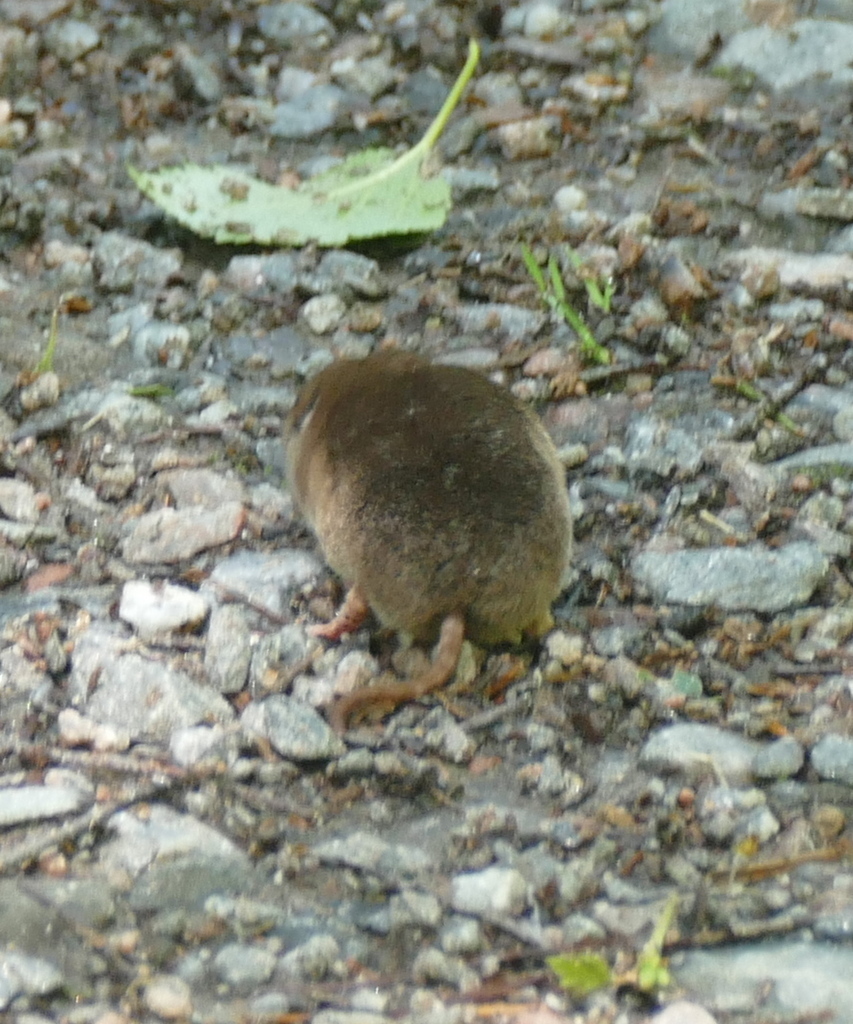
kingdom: Animalia
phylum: Chordata
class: Mammalia
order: Soricomorpha
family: Soricidae
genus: Sorex
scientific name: Sorex araneus
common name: Common shrew
